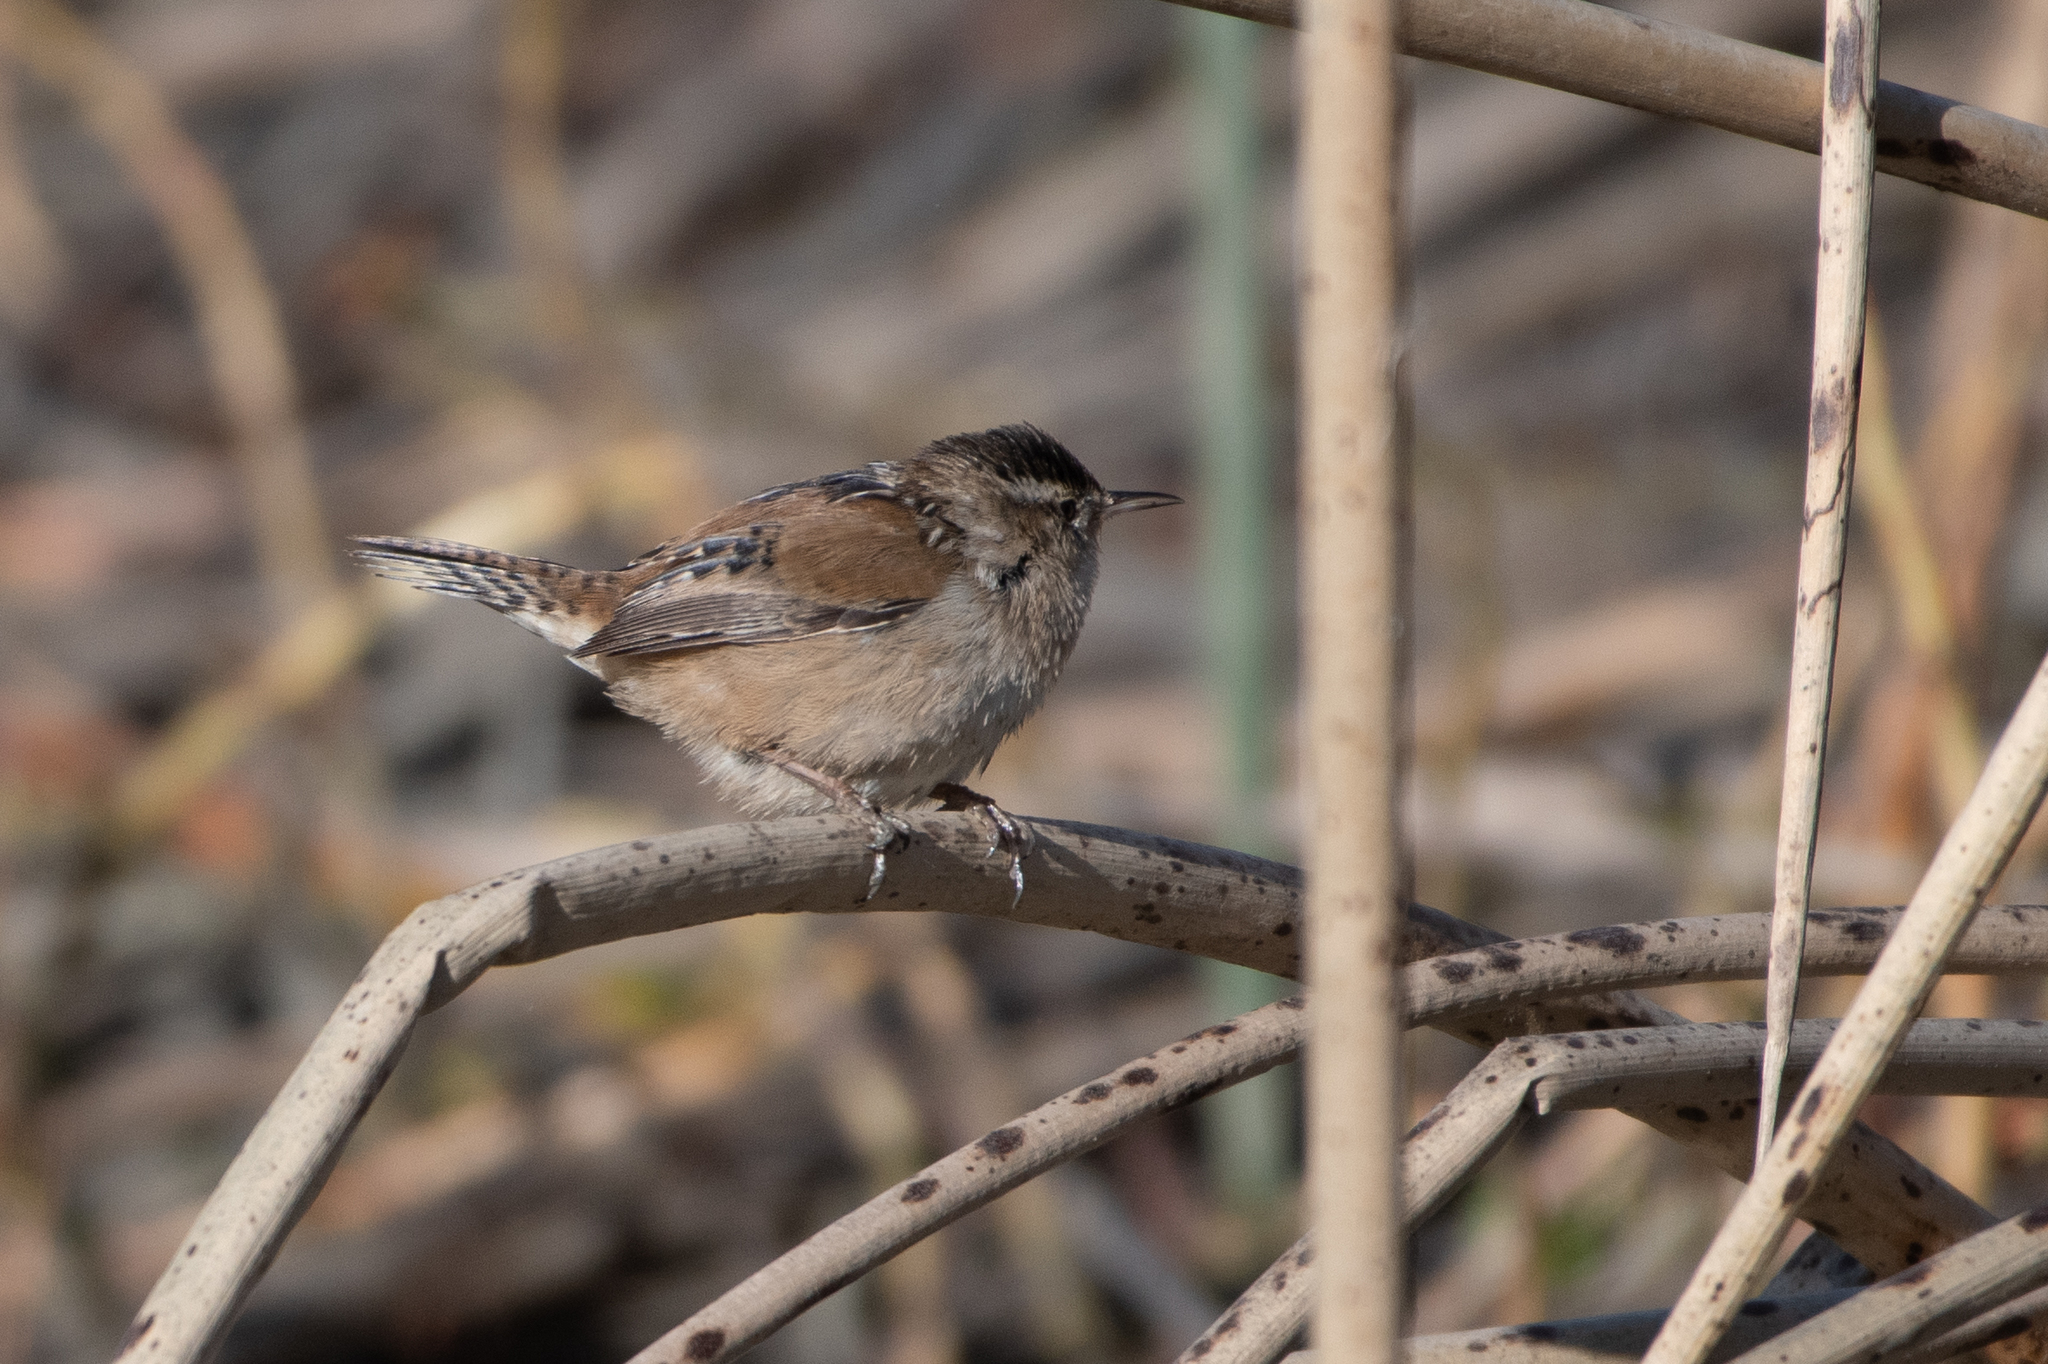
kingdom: Animalia
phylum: Chordata
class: Aves
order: Passeriformes
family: Troglodytidae
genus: Cistothorus
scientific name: Cistothorus palustris
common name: Marsh wren
